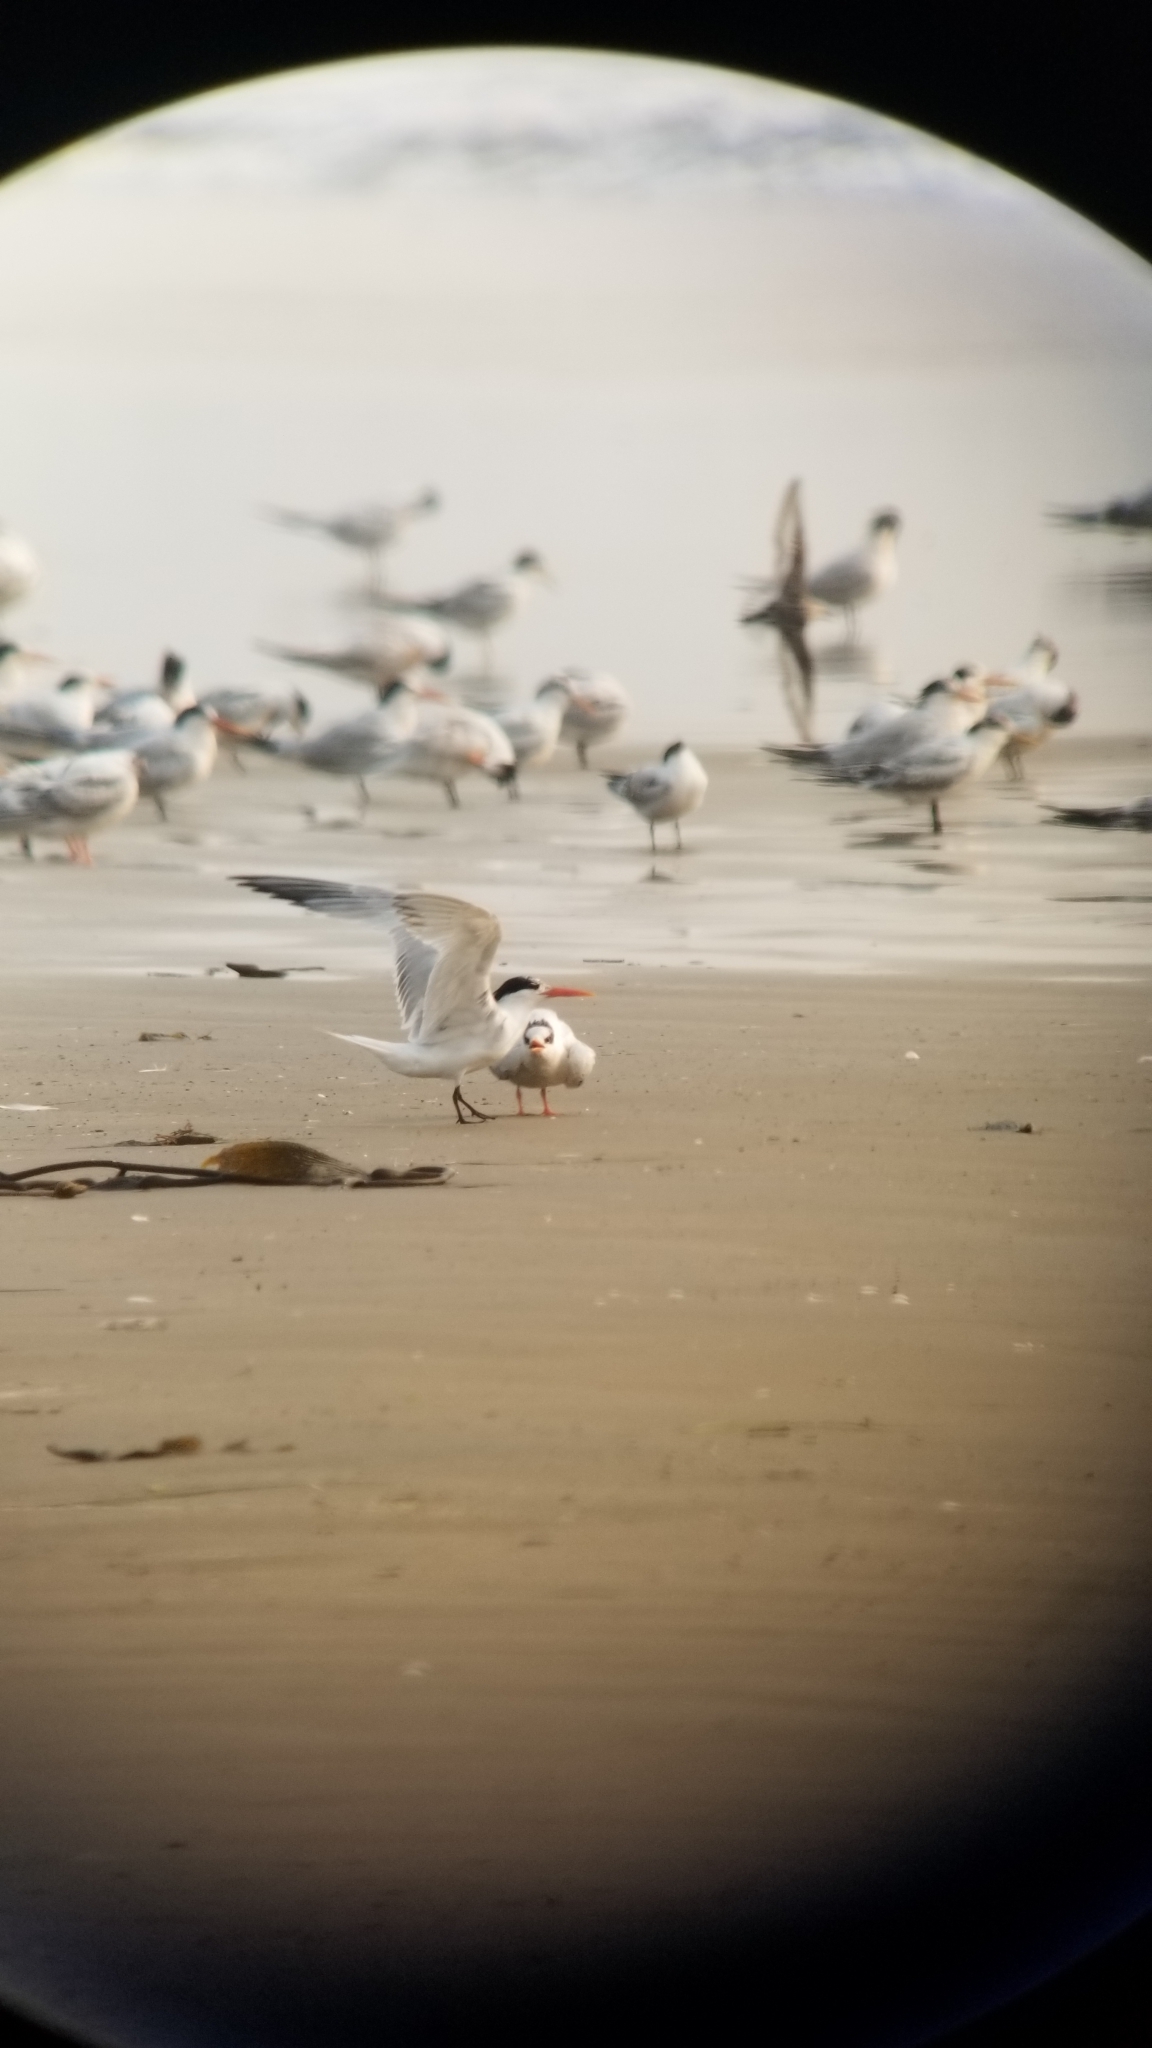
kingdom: Animalia
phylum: Chordata
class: Aves
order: Charadriiformes
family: Laridae
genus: Thalasseus
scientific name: Thalasseus maximus
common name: Royal tern
